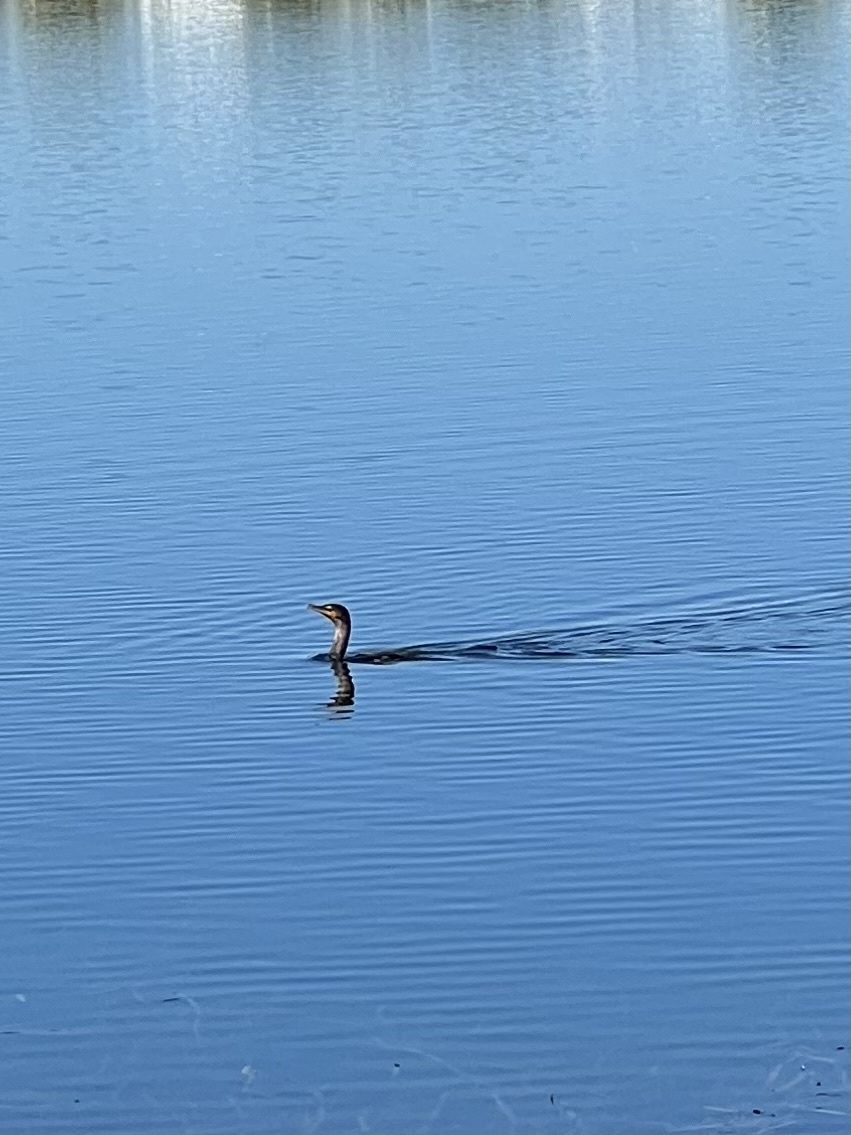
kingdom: Animalia
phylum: Chordata
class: Aves
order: Suliformes
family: Phalacrocoracidae
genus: Phalacrocorax
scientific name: Phalacrocorax auritus
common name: Double-crested cormorant
